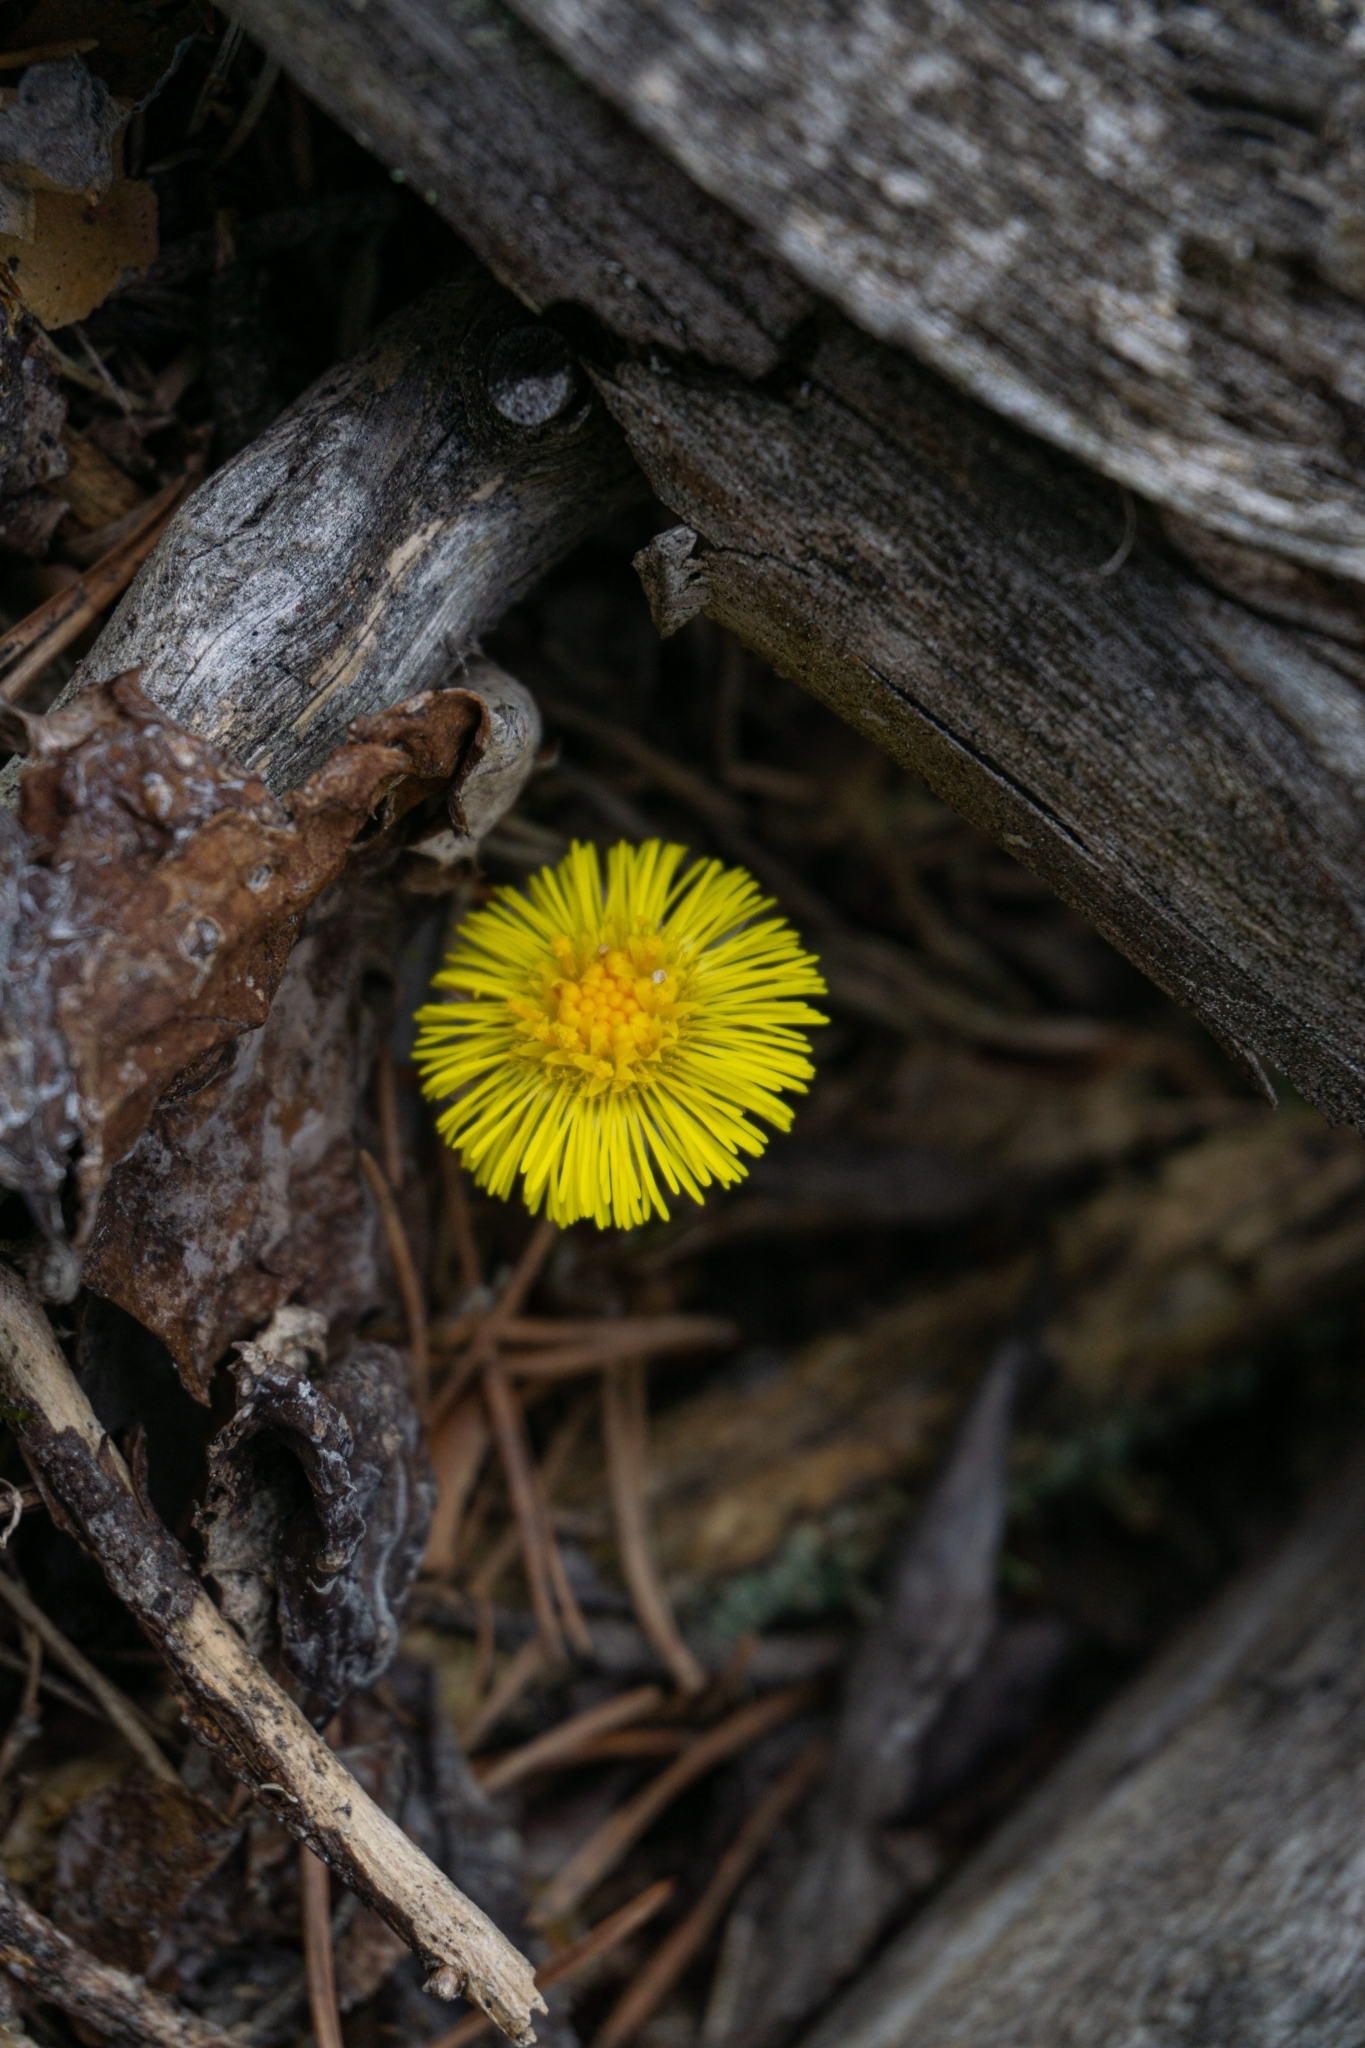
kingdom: Plantae
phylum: Tracheophyta
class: Magnoliopsida
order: Asterales
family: Asteraceae
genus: Tussilago
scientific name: Tussilago farfara
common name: Coltsfoot
